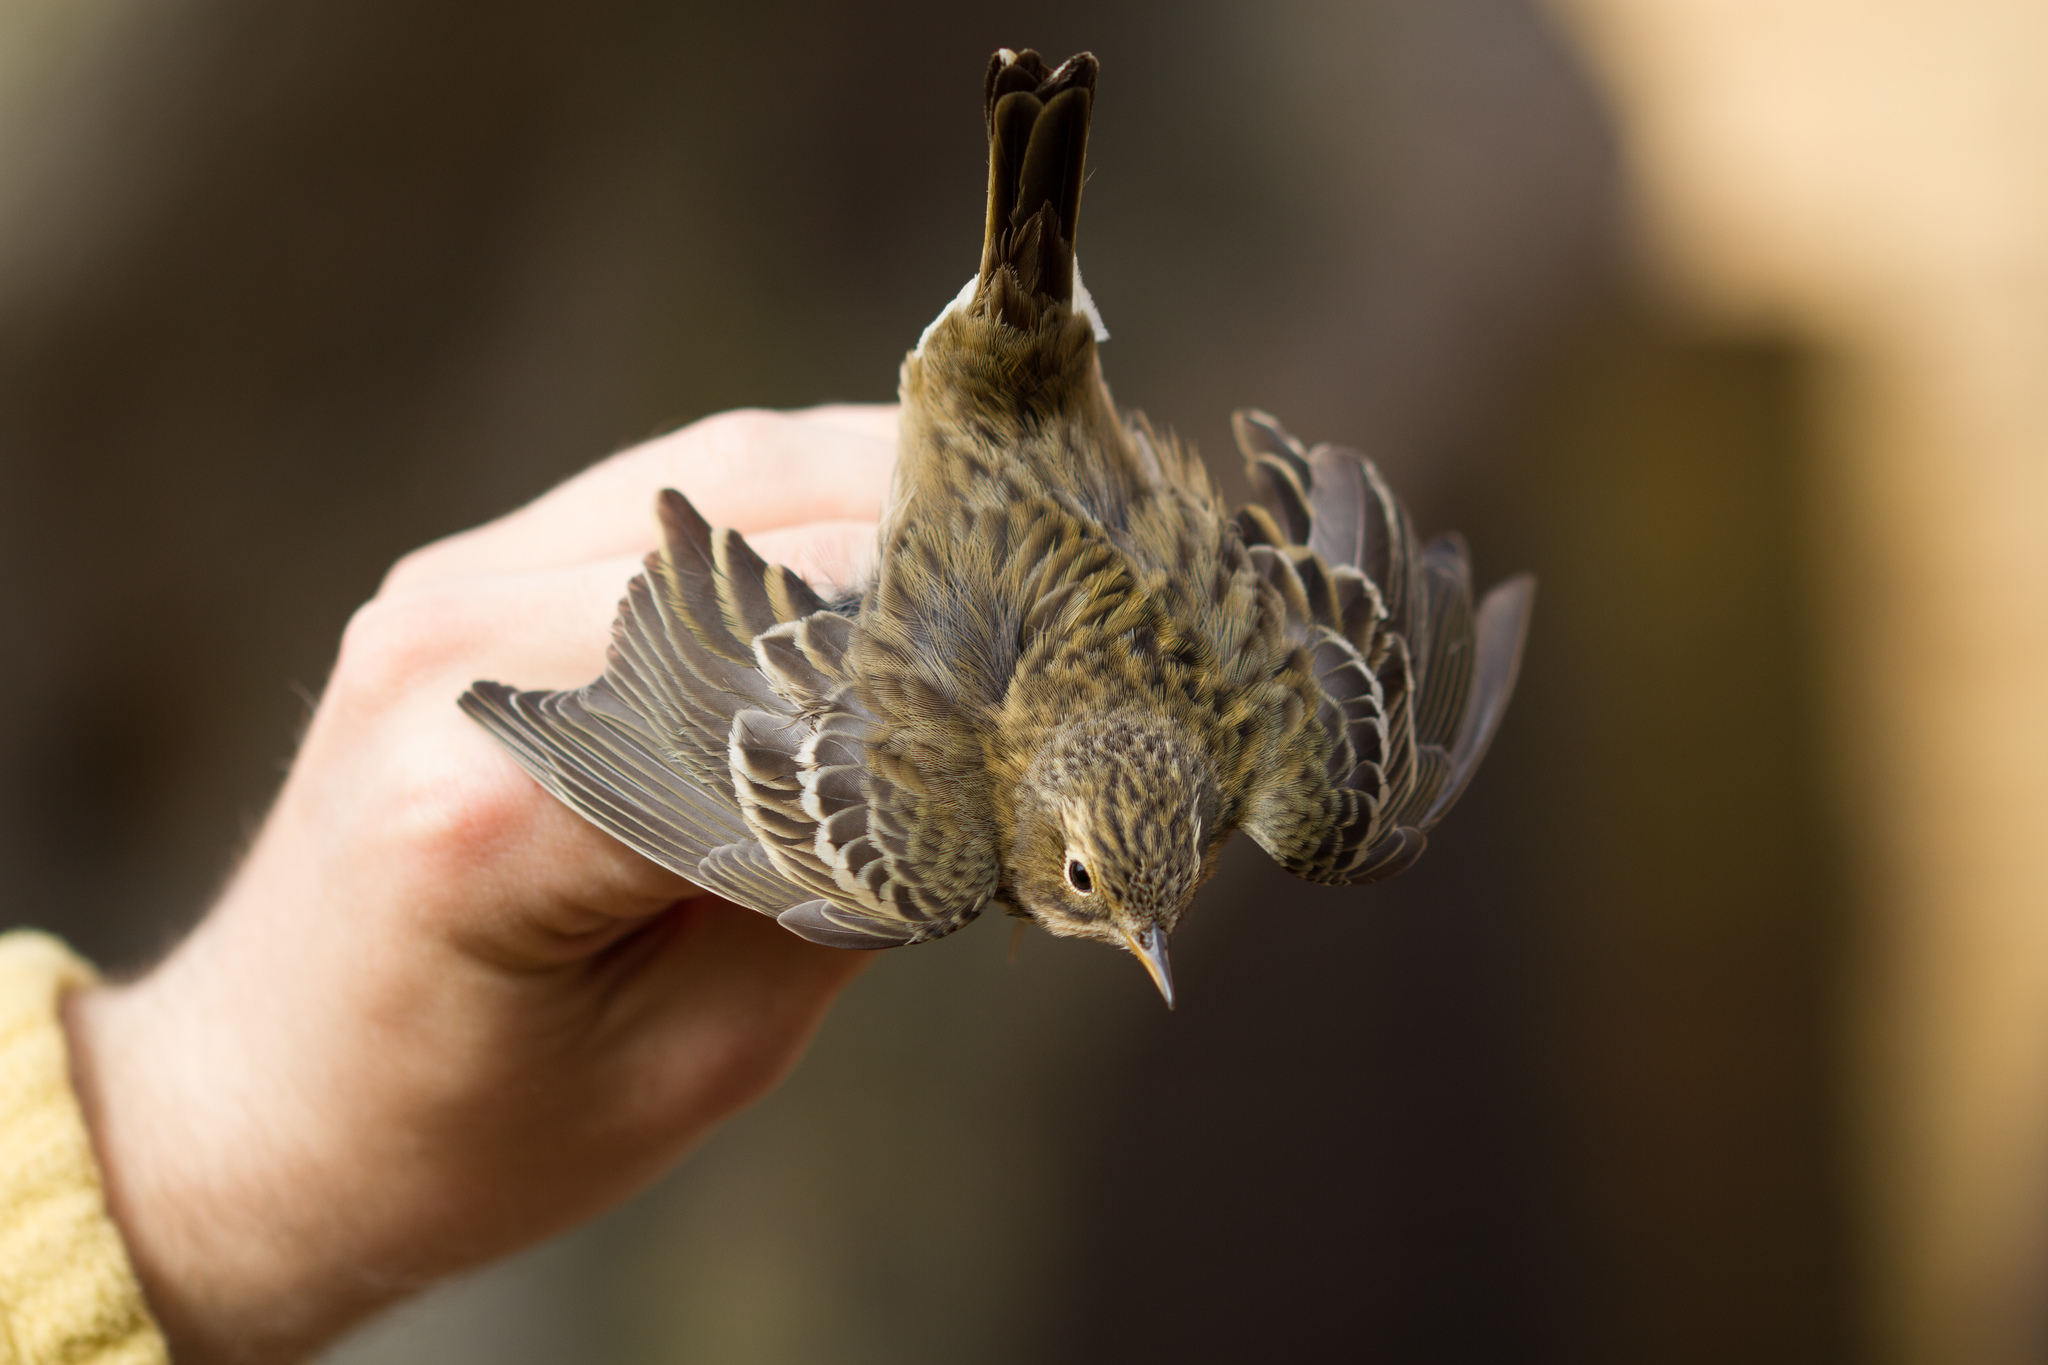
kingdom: Animalia
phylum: Chordata
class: Aves
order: Passeriformes
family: Motacillidae
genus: Anthus
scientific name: Anthus pratensis
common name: Meadow pipit
